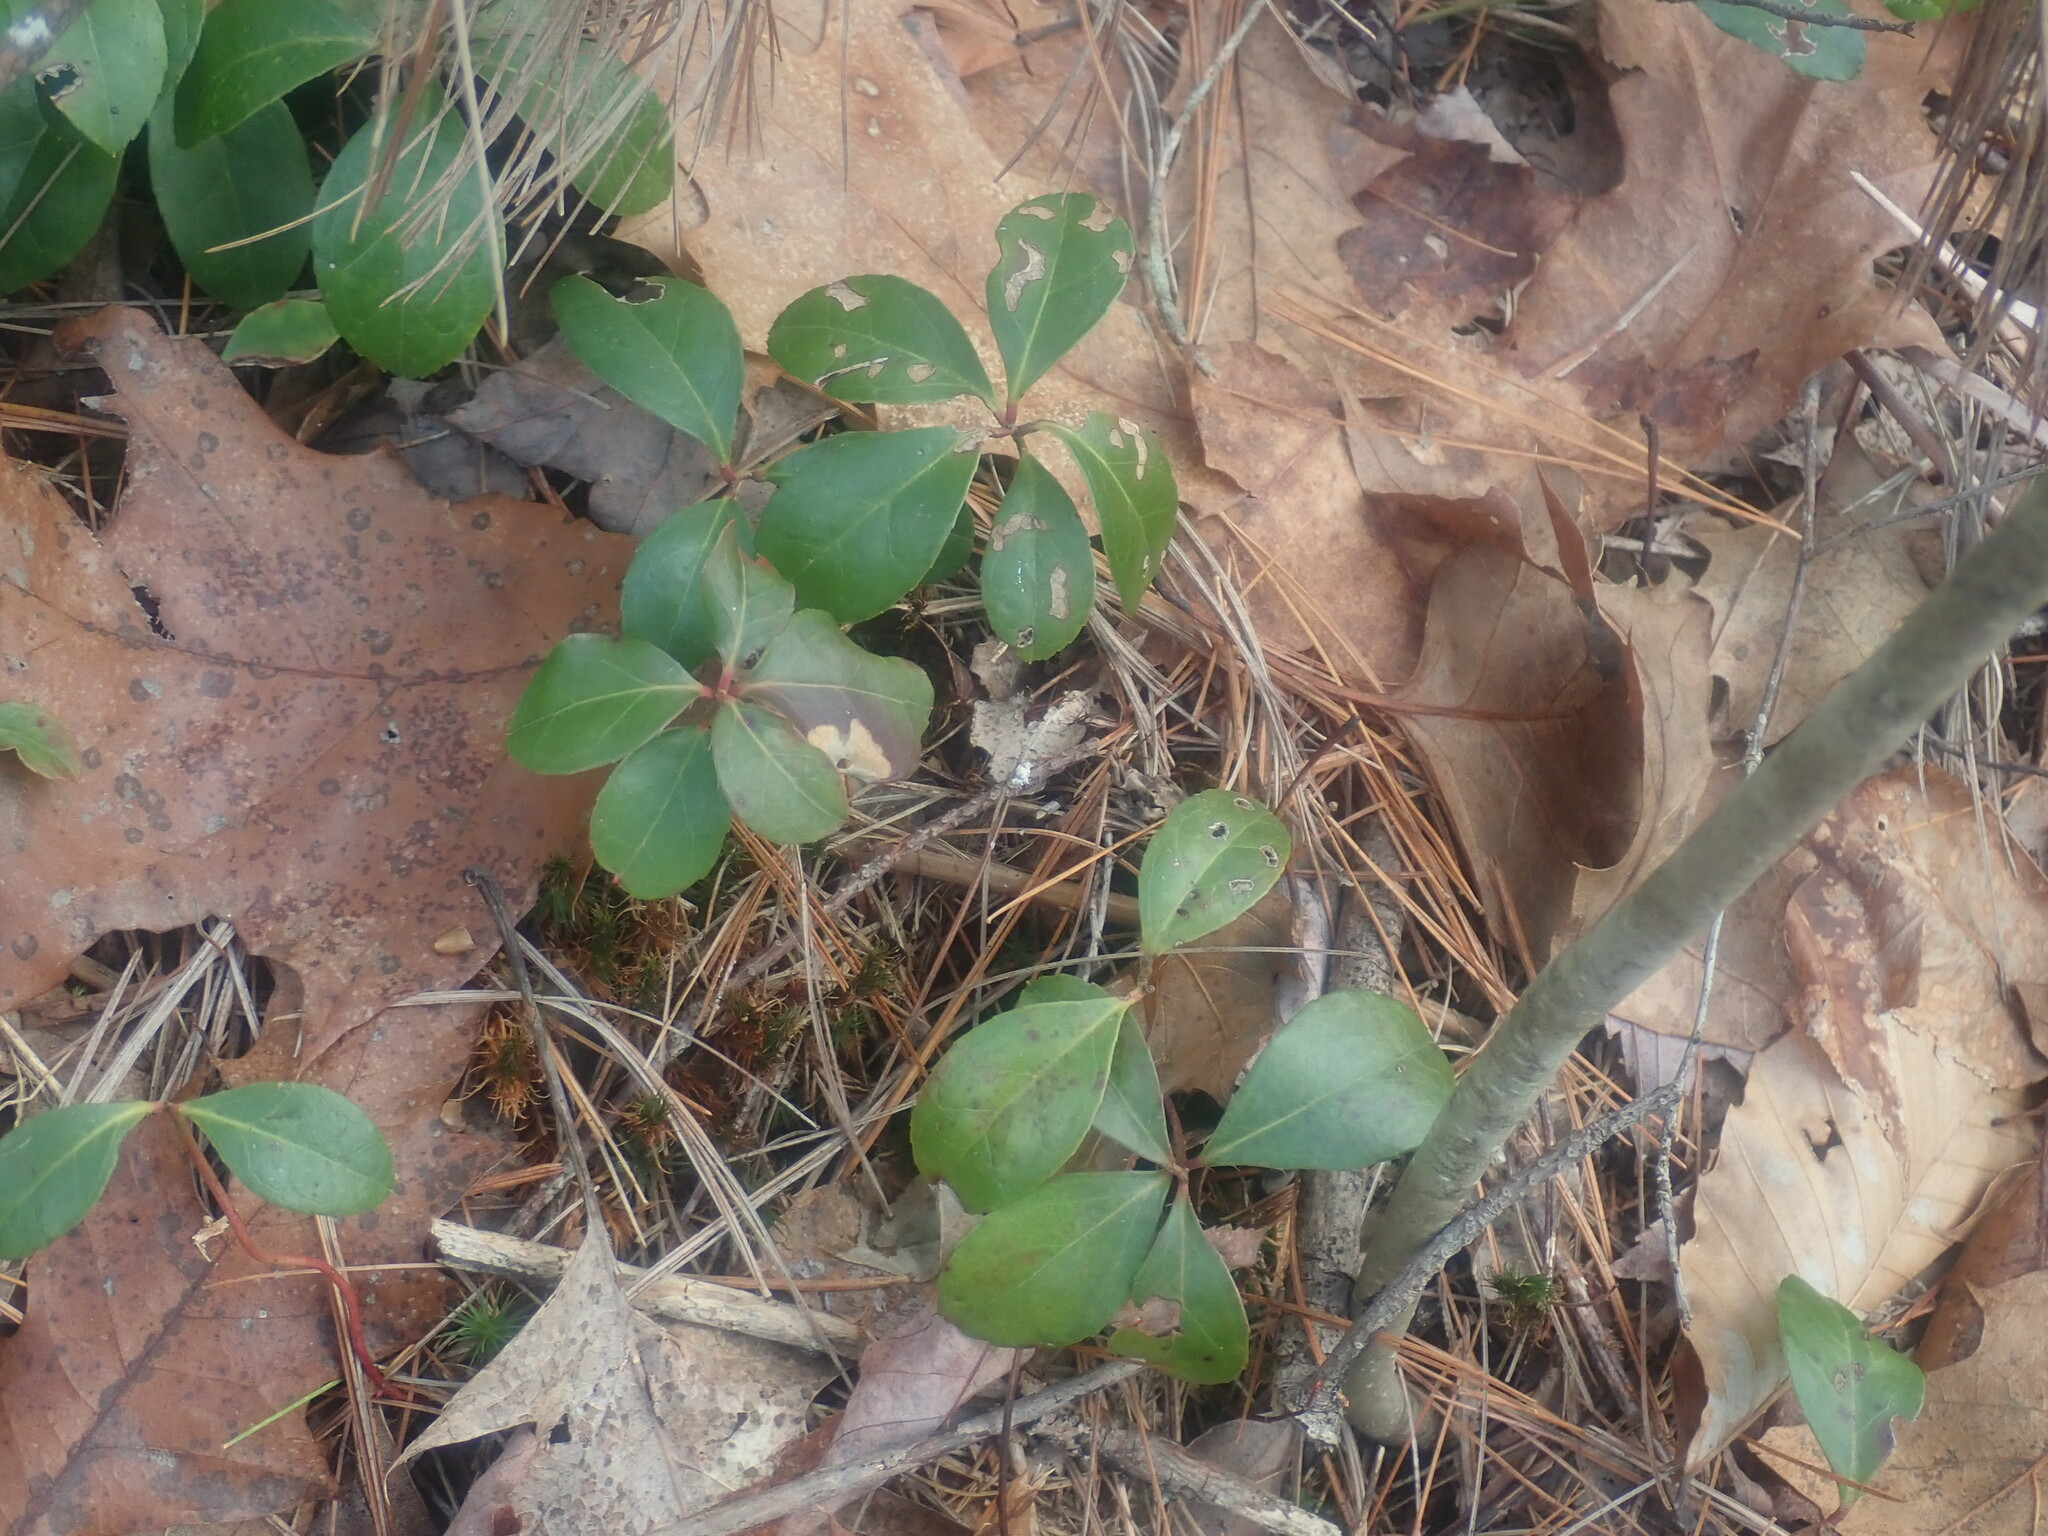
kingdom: Plantae
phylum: Tracheophyta
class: Magnoliopsida
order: Ericales
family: Ericaceae
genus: Gaultheria
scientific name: Gaultheria procumbens
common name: Checkerberry
